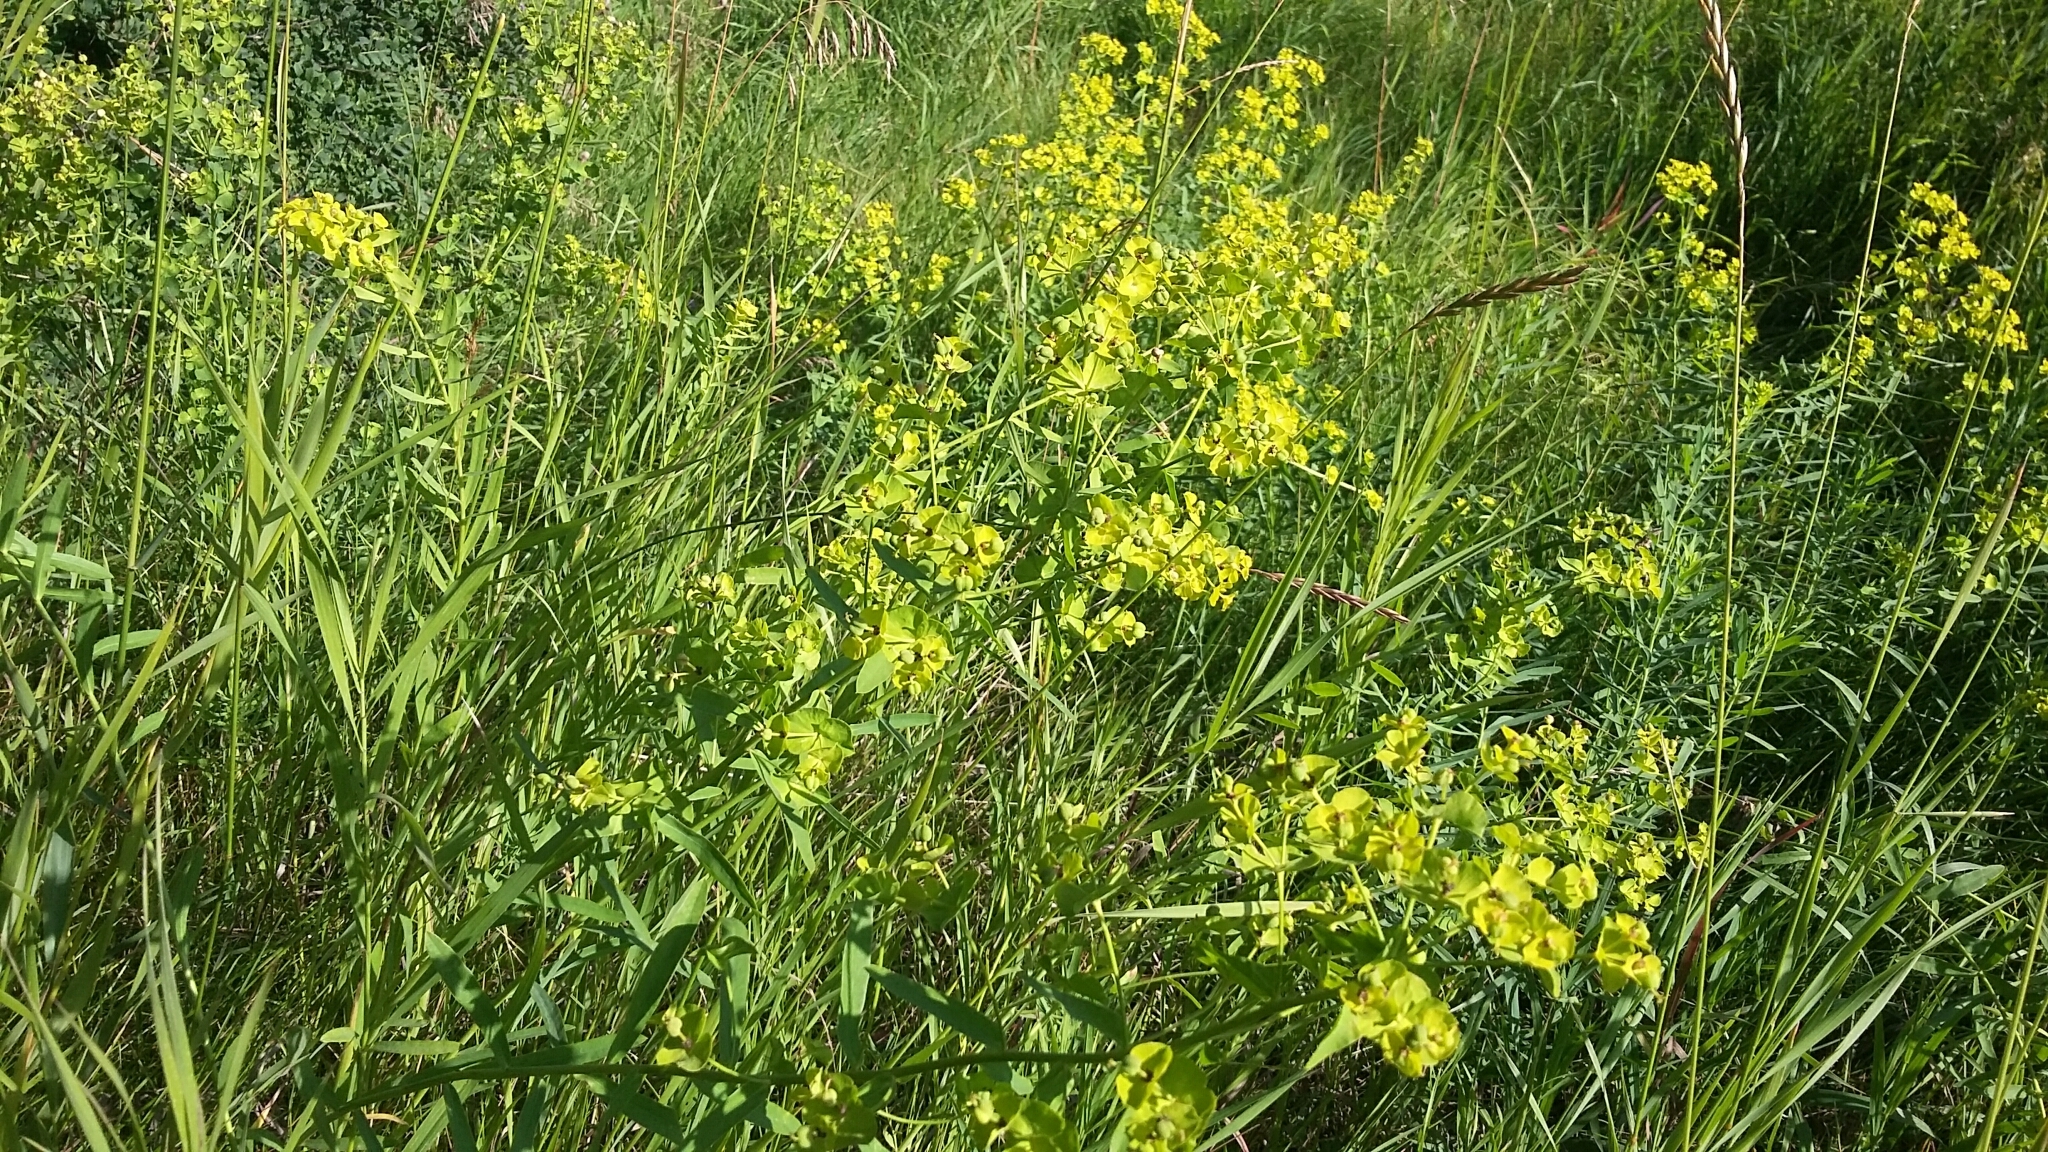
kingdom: Plantae
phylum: Tracheophyta
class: Magnoliopsida
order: Malpighiales
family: Euphorbiaceae
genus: Euphorbia
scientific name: Euphorbia virgata
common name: Leafy spurge
